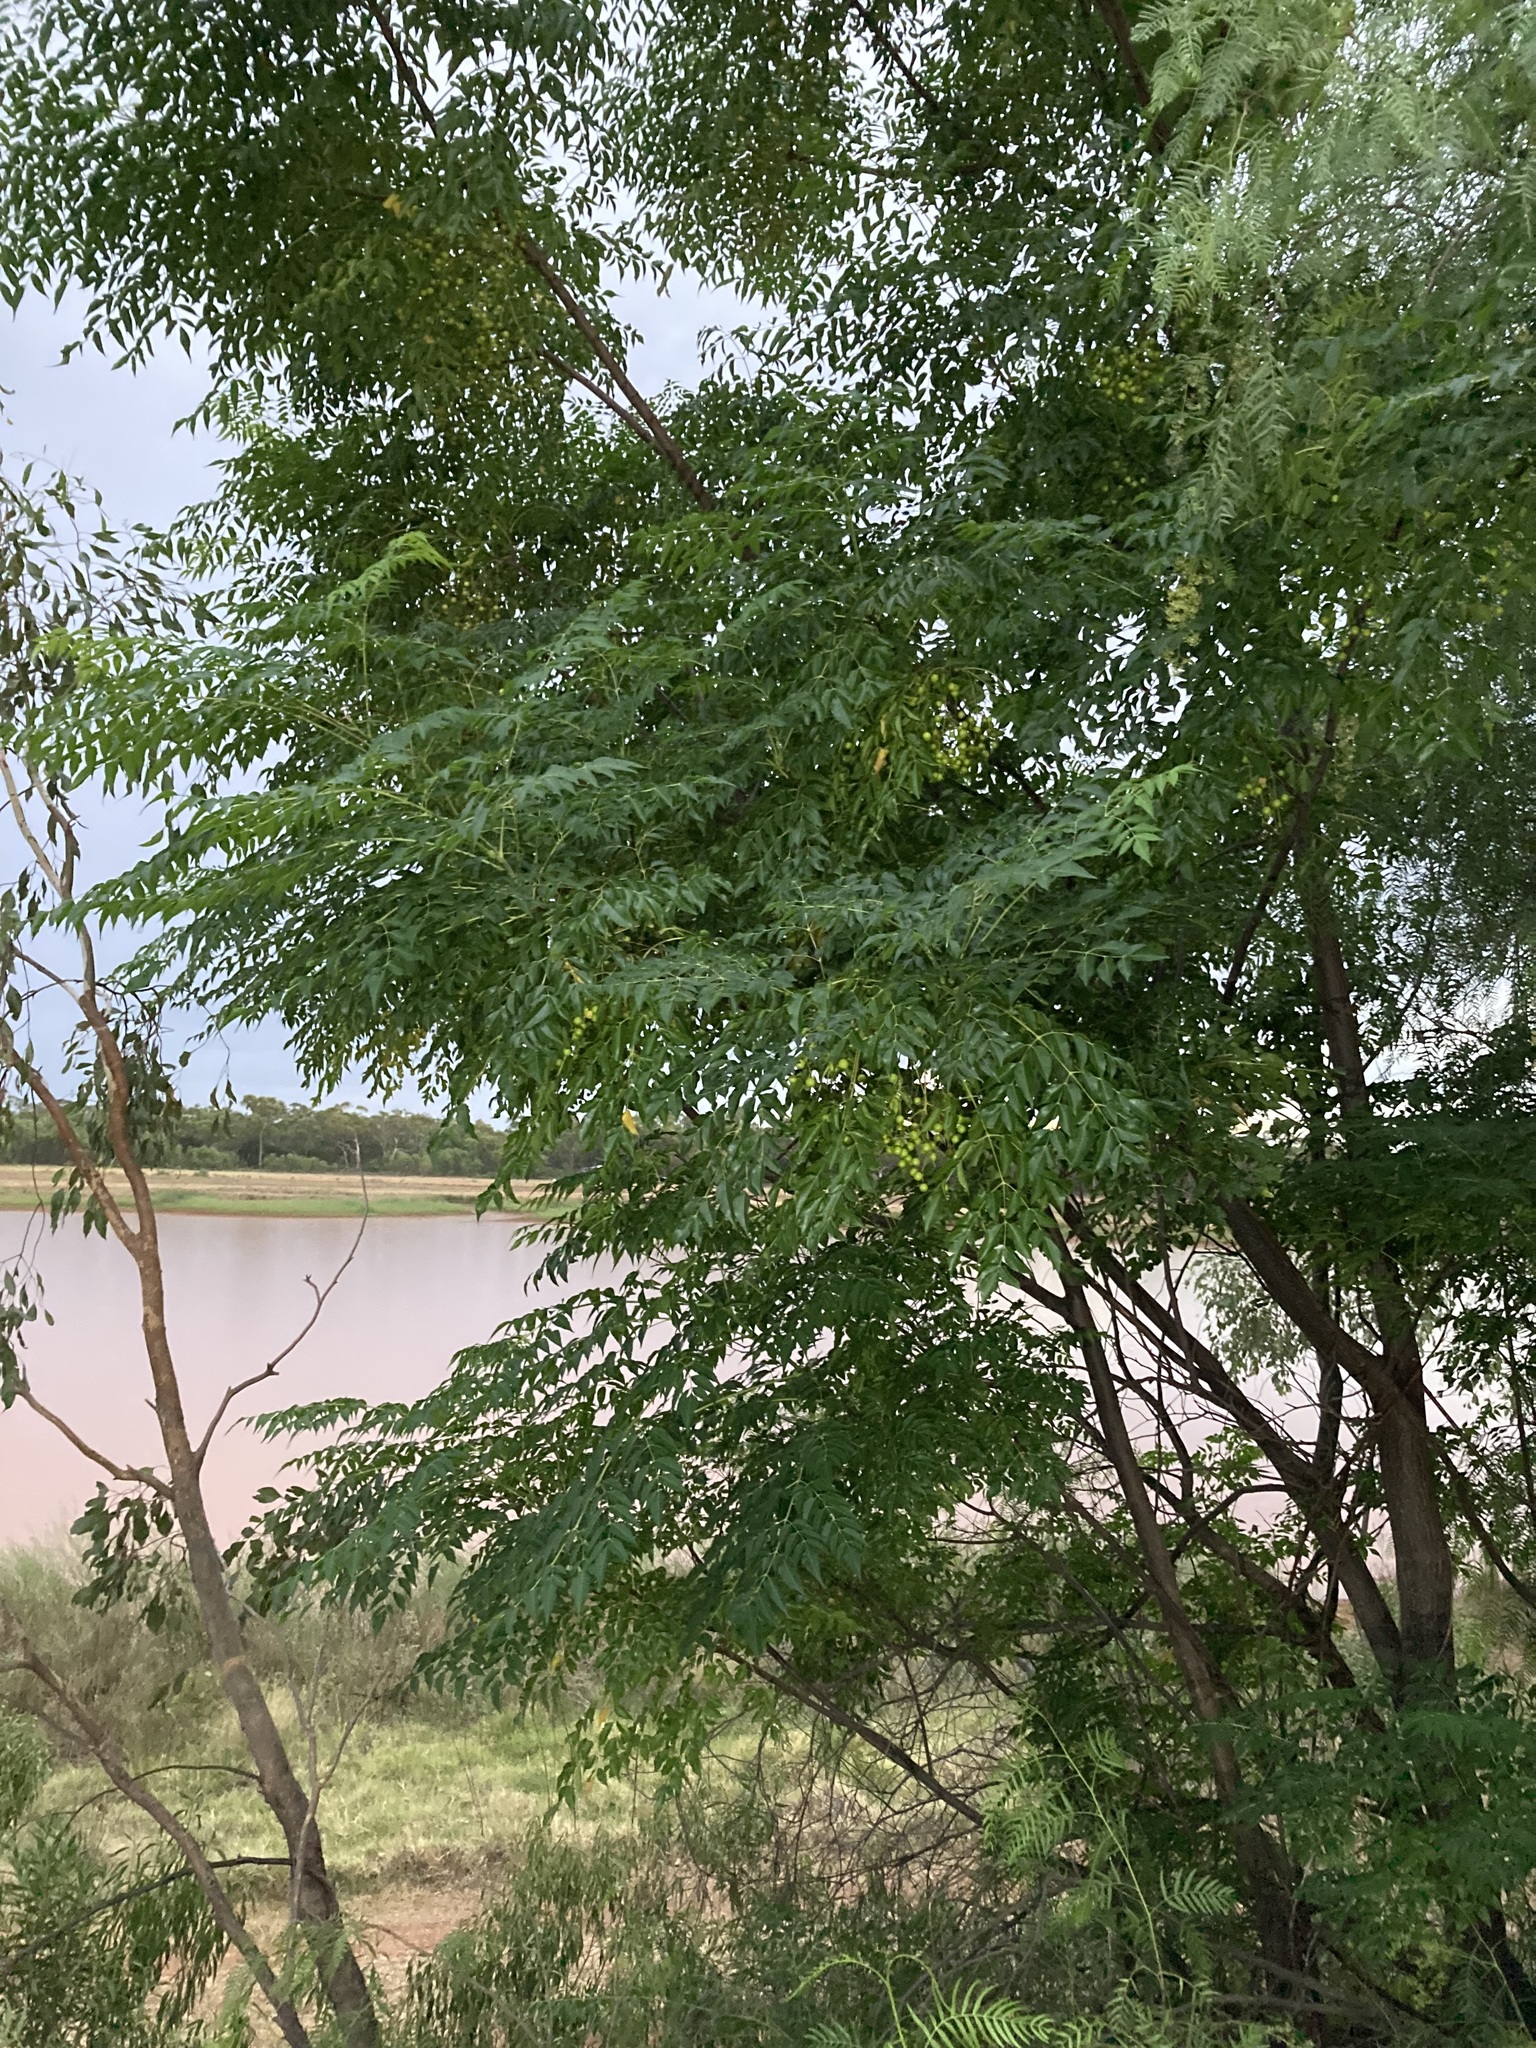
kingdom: Plantae
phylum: Tracheophyta
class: Magnoliopsida
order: Sapindales
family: Meliaceae
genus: Melia
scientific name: Melia azedarach
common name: Chinaberrytree
